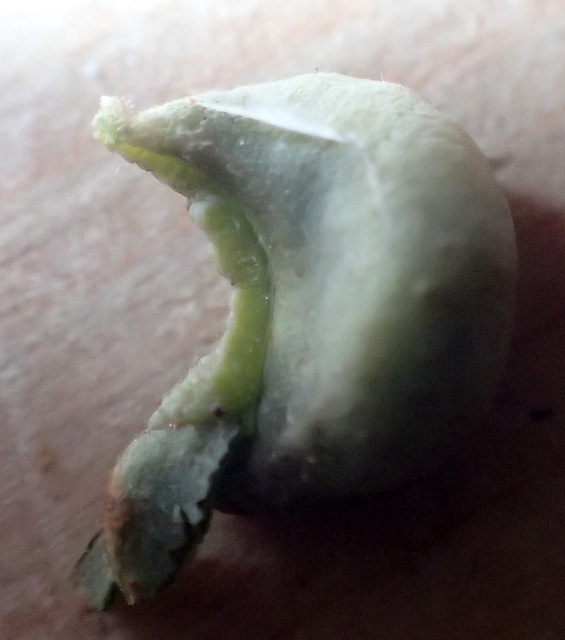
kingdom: Animalia
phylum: Arthropoda
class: Insecta
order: Hemiptera
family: Triozidae
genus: Trioza
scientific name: Trioza magnoliae
